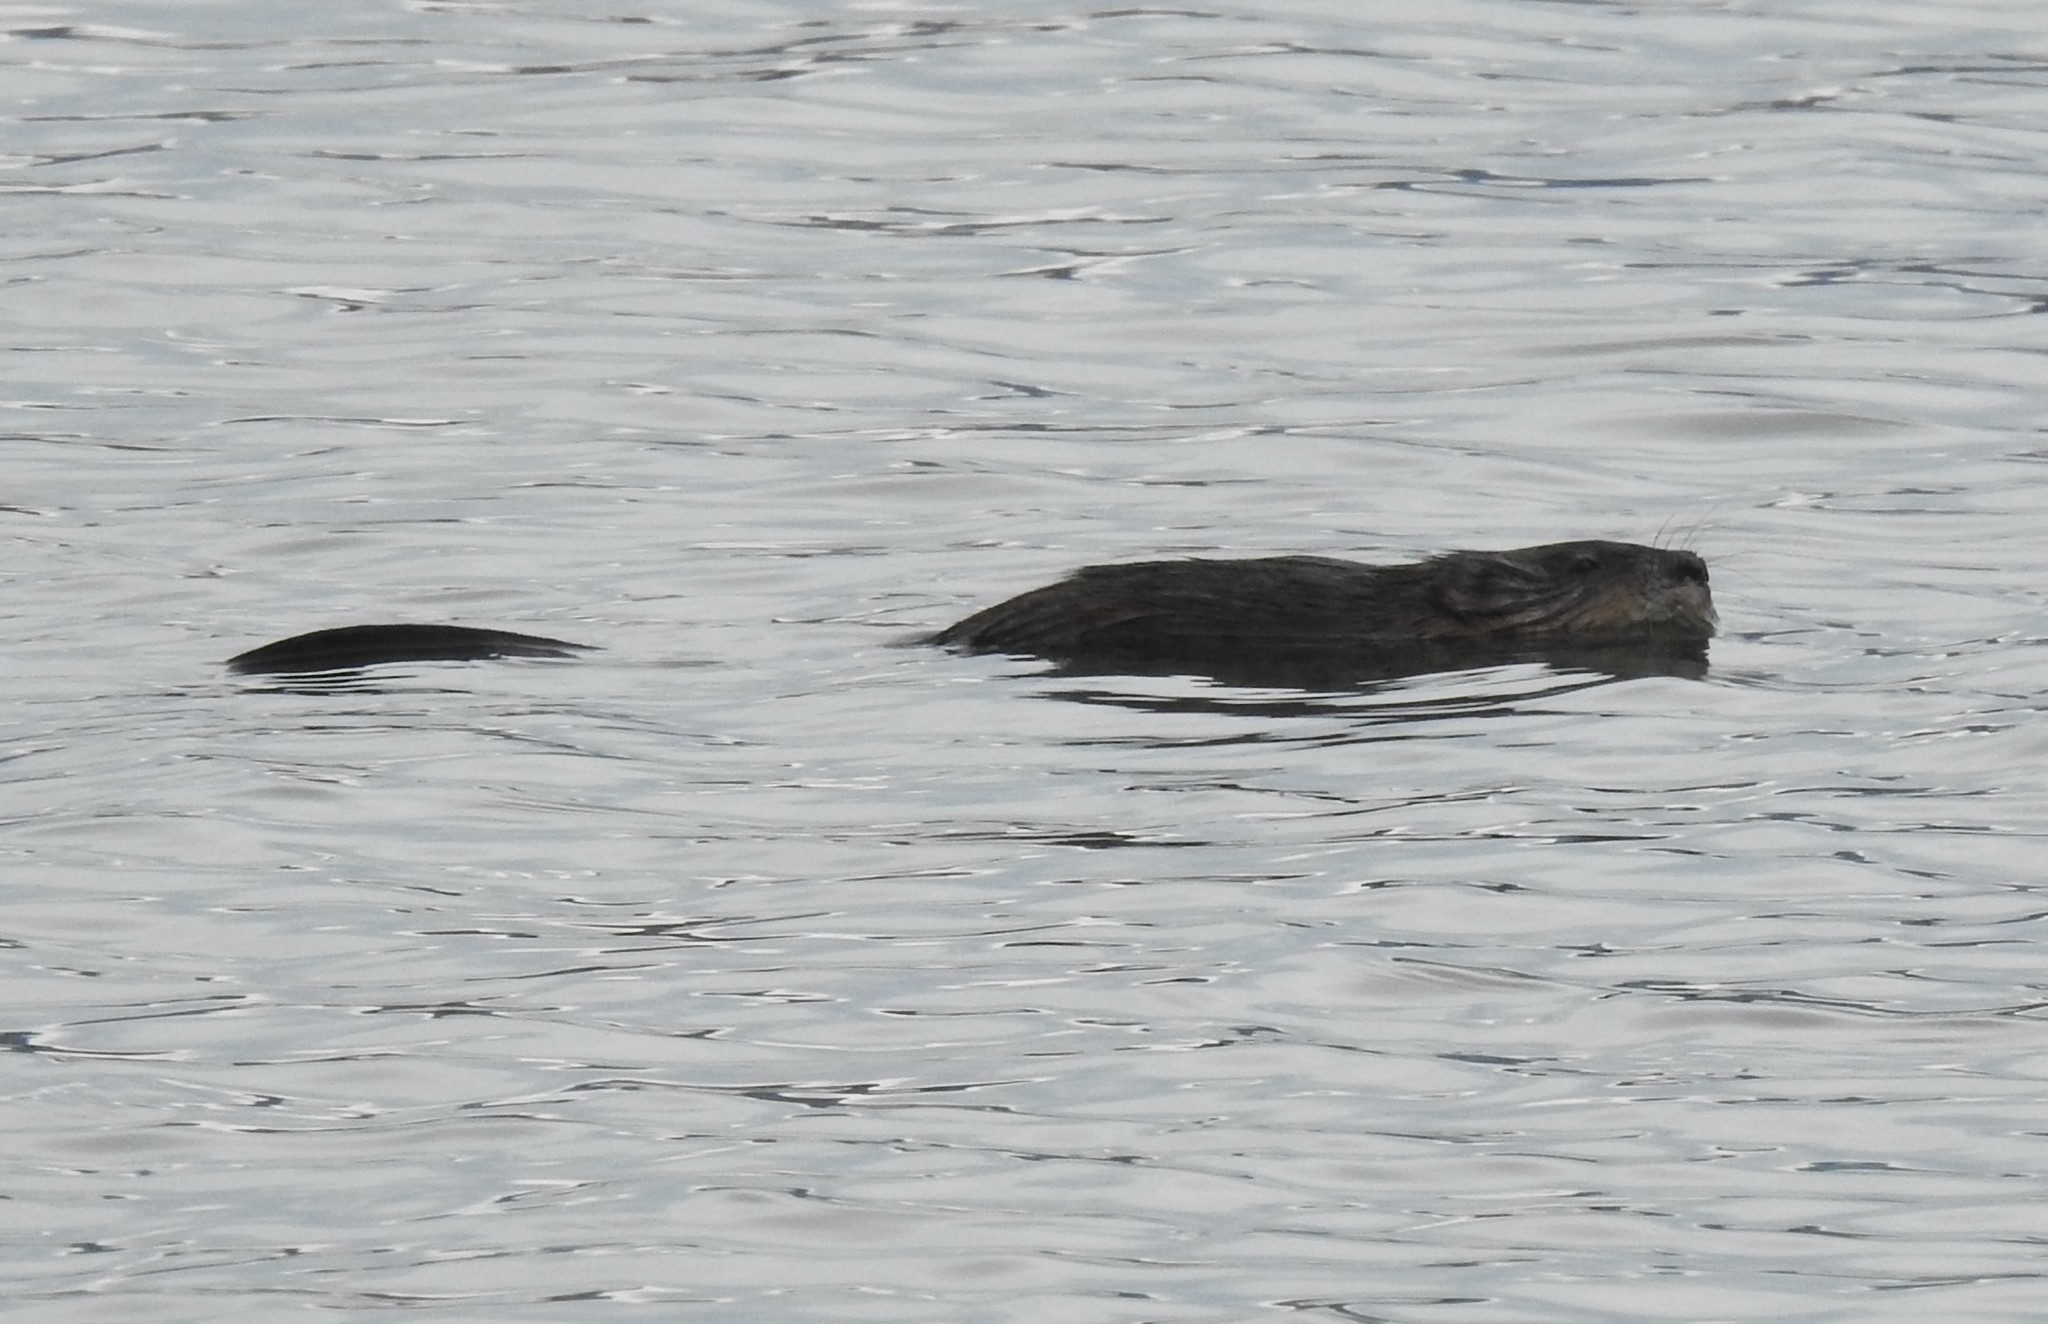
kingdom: Animalia
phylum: Chordata
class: Mammalia
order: Rodentia
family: Cricetidae
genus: Ondatra
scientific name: Ondatra zibethicus
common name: Muskrat
